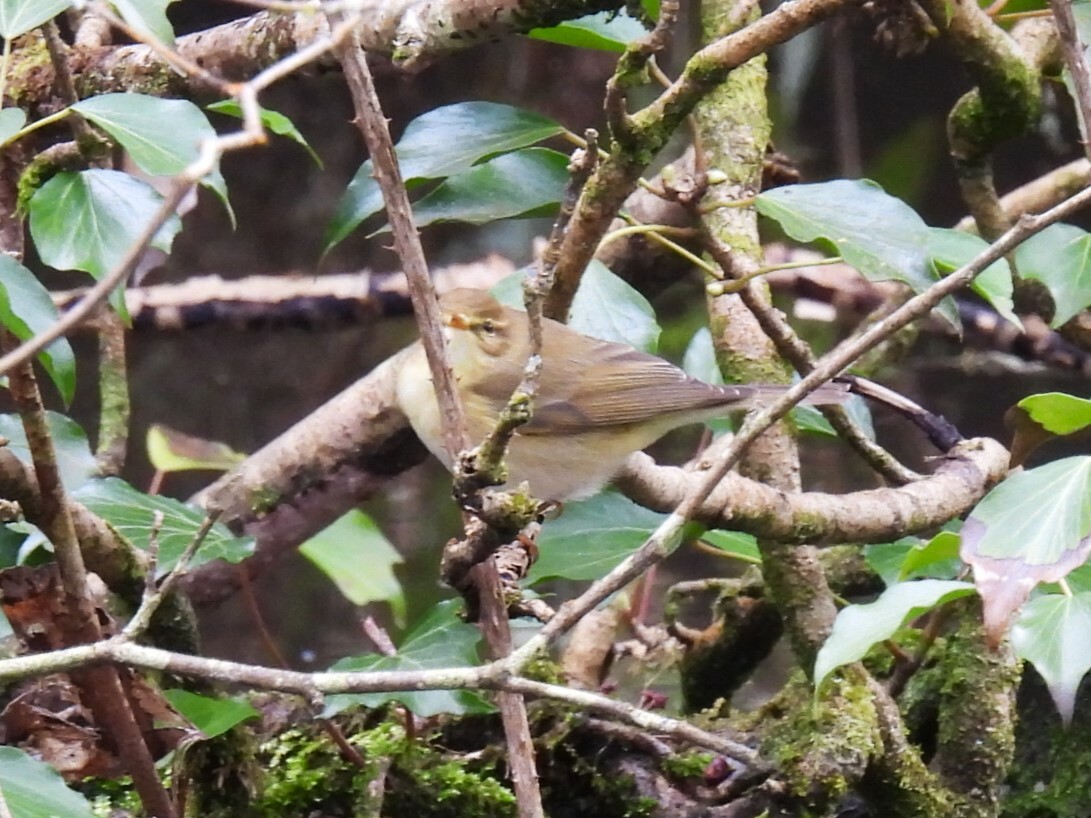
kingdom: Animalia
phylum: Chordata
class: Aves
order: Passeriformes
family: Phylloscopidae
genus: Phylloscopus
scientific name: Phylloscopus trochilus
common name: Willow warbler
